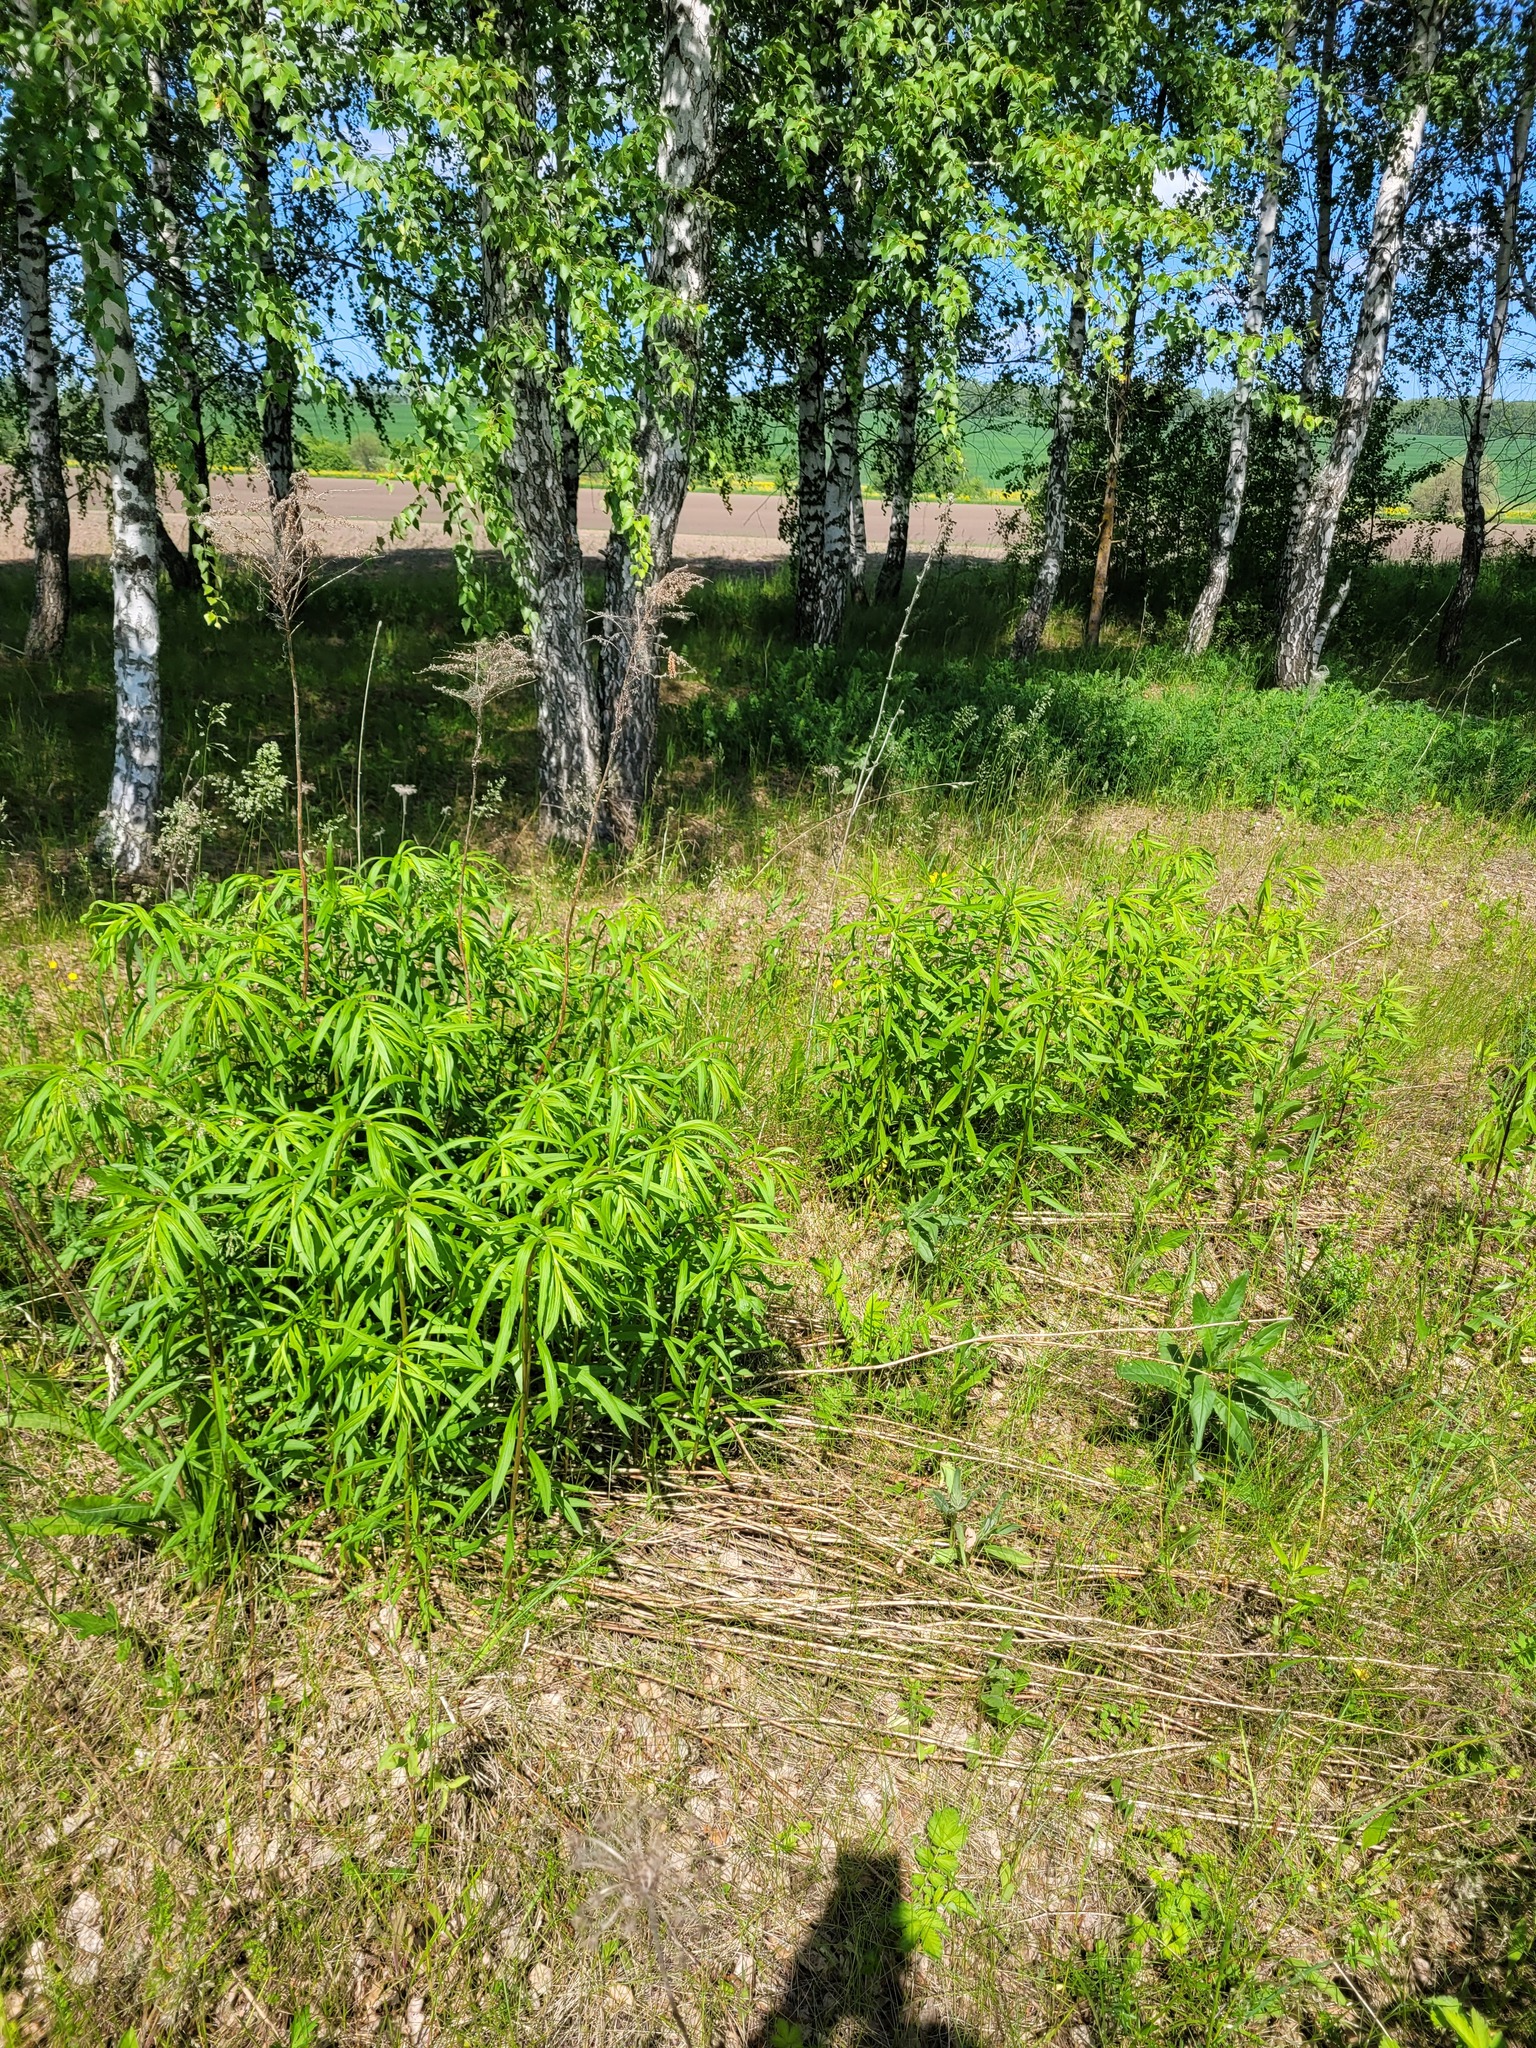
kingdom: Plantae
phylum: Tracheophyta
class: Magnoliopsida
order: Asterales
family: Asteraceae
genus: Solidago
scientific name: Solidago canadensis
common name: Canada goldenrod
